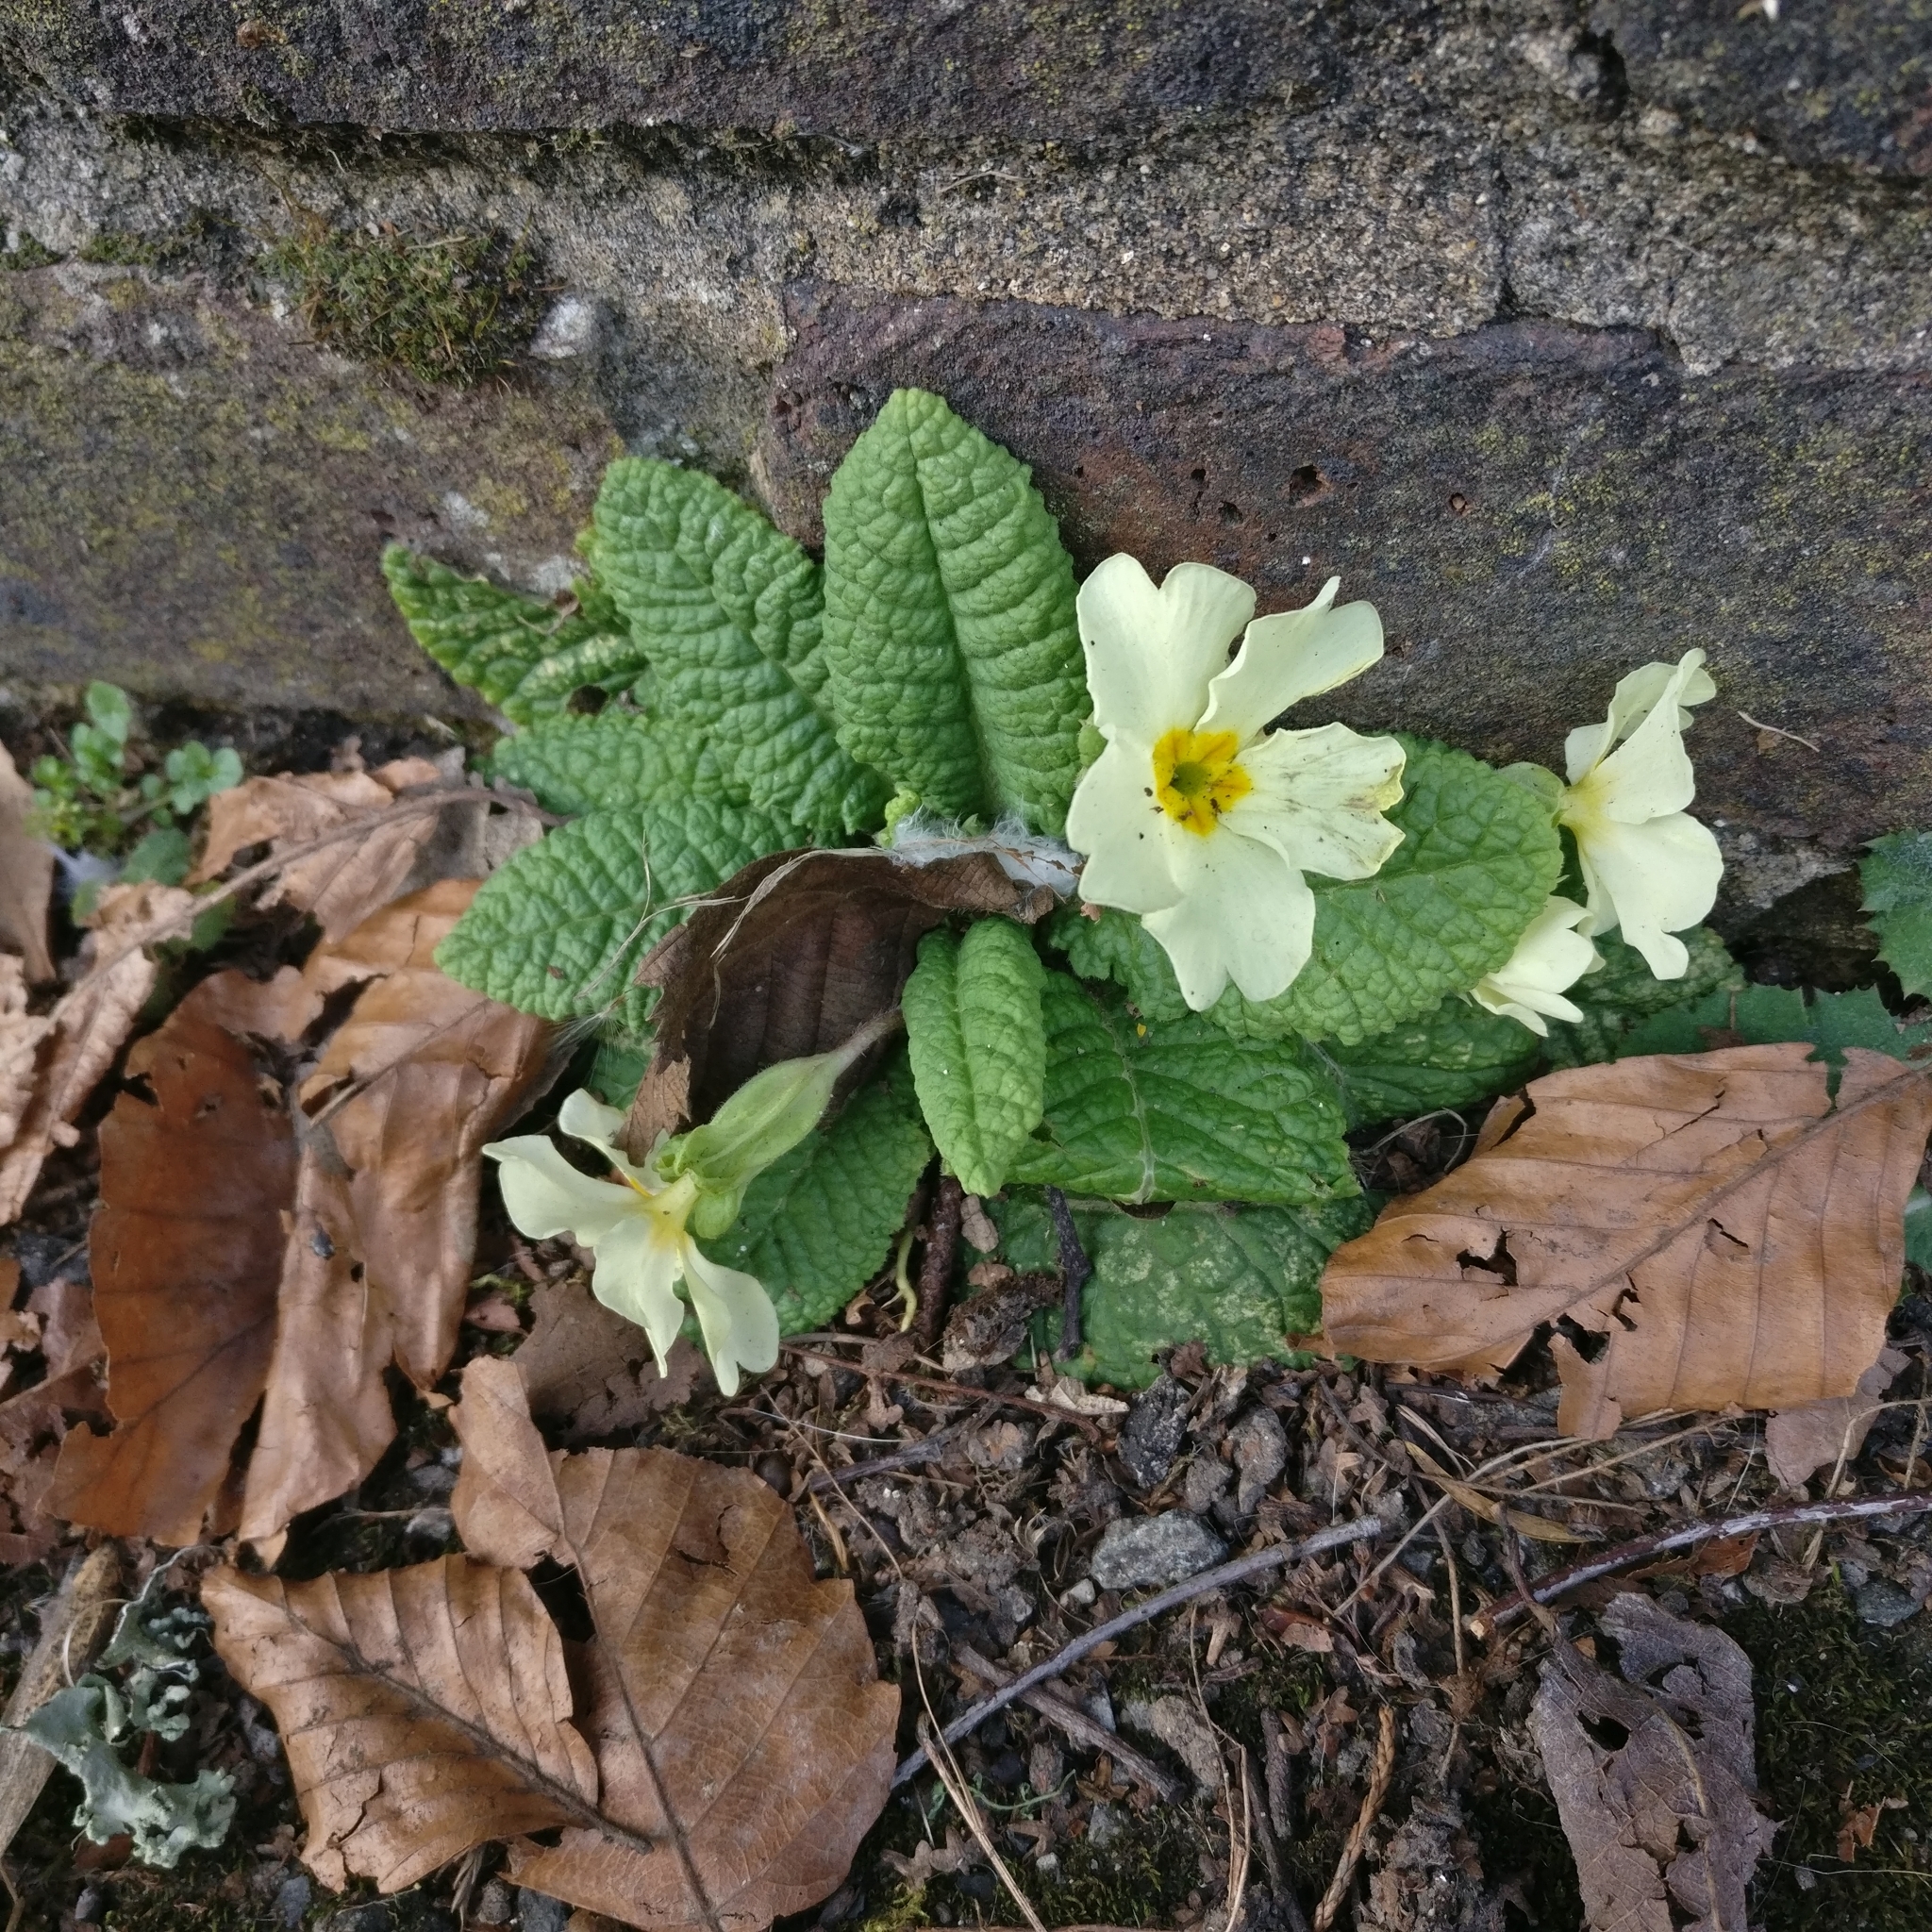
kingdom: Plantae
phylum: Tracheophyta
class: Magnoliopsida
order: Ericales
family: Primulaceae
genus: Primula
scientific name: Primula vulgaris
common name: Primrose
